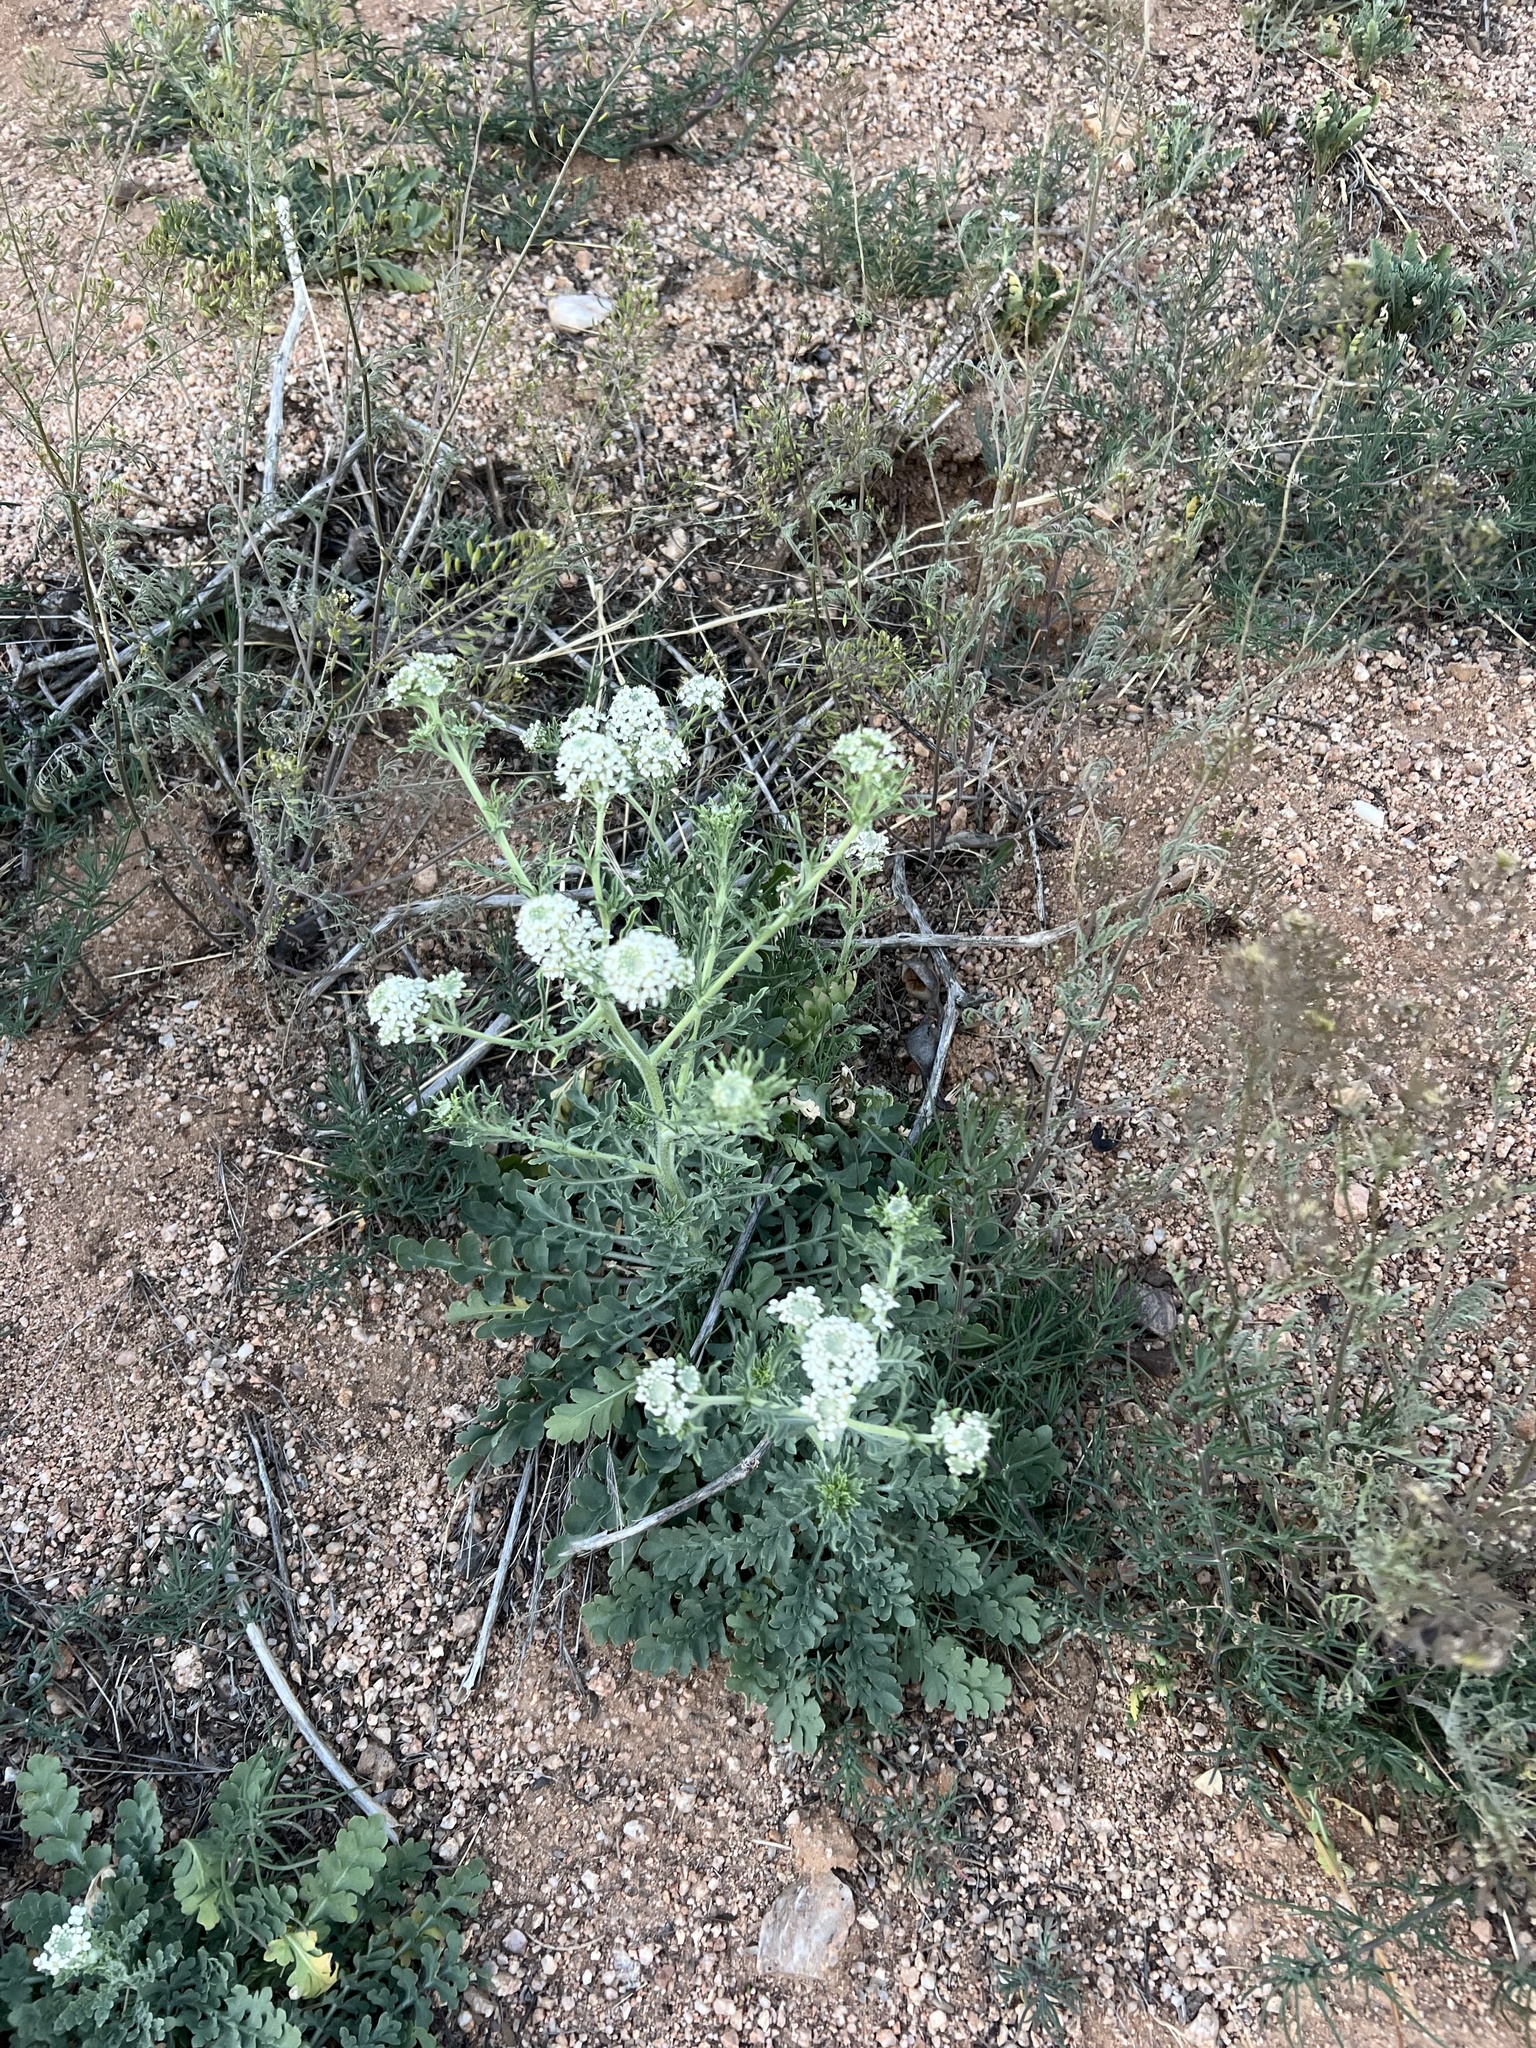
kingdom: Plantae
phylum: Tracheophyta
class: Magnoliopsida
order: Brassicales
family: Brassicaceae
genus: Lepidium
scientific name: Lepidium thurberi
